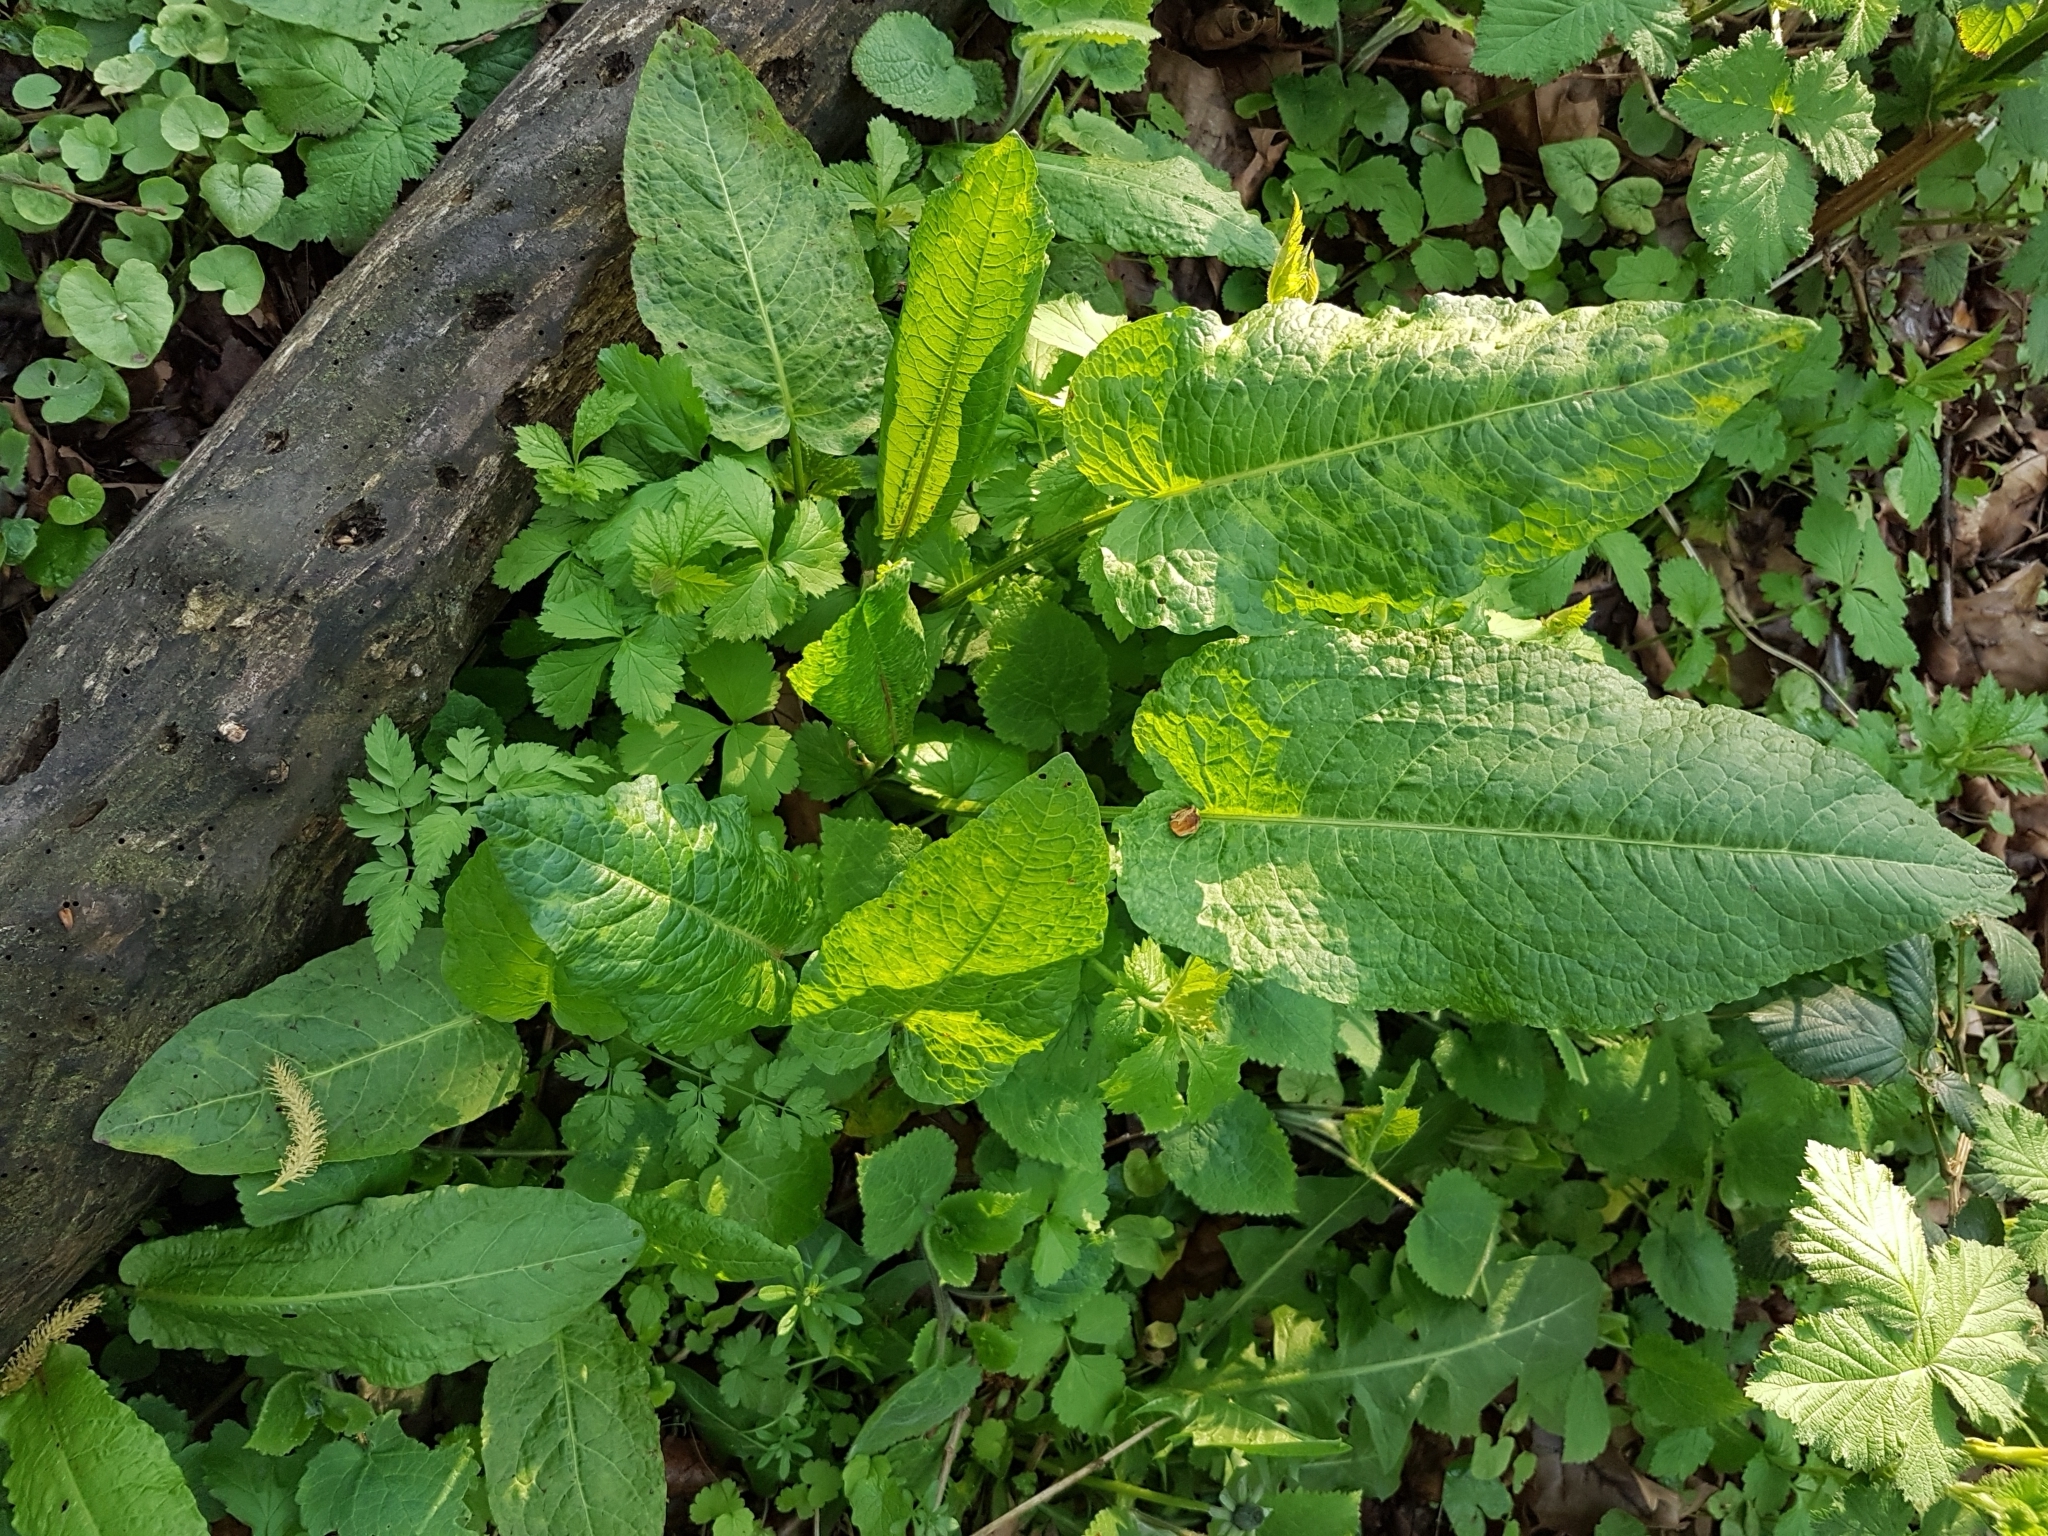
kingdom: Plantae
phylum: Tracheophyta
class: Magnoliopsida
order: Caryophyllales
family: Polygonaceae
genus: Rumex
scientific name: Rumex obtusifolius
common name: Bitter dock
